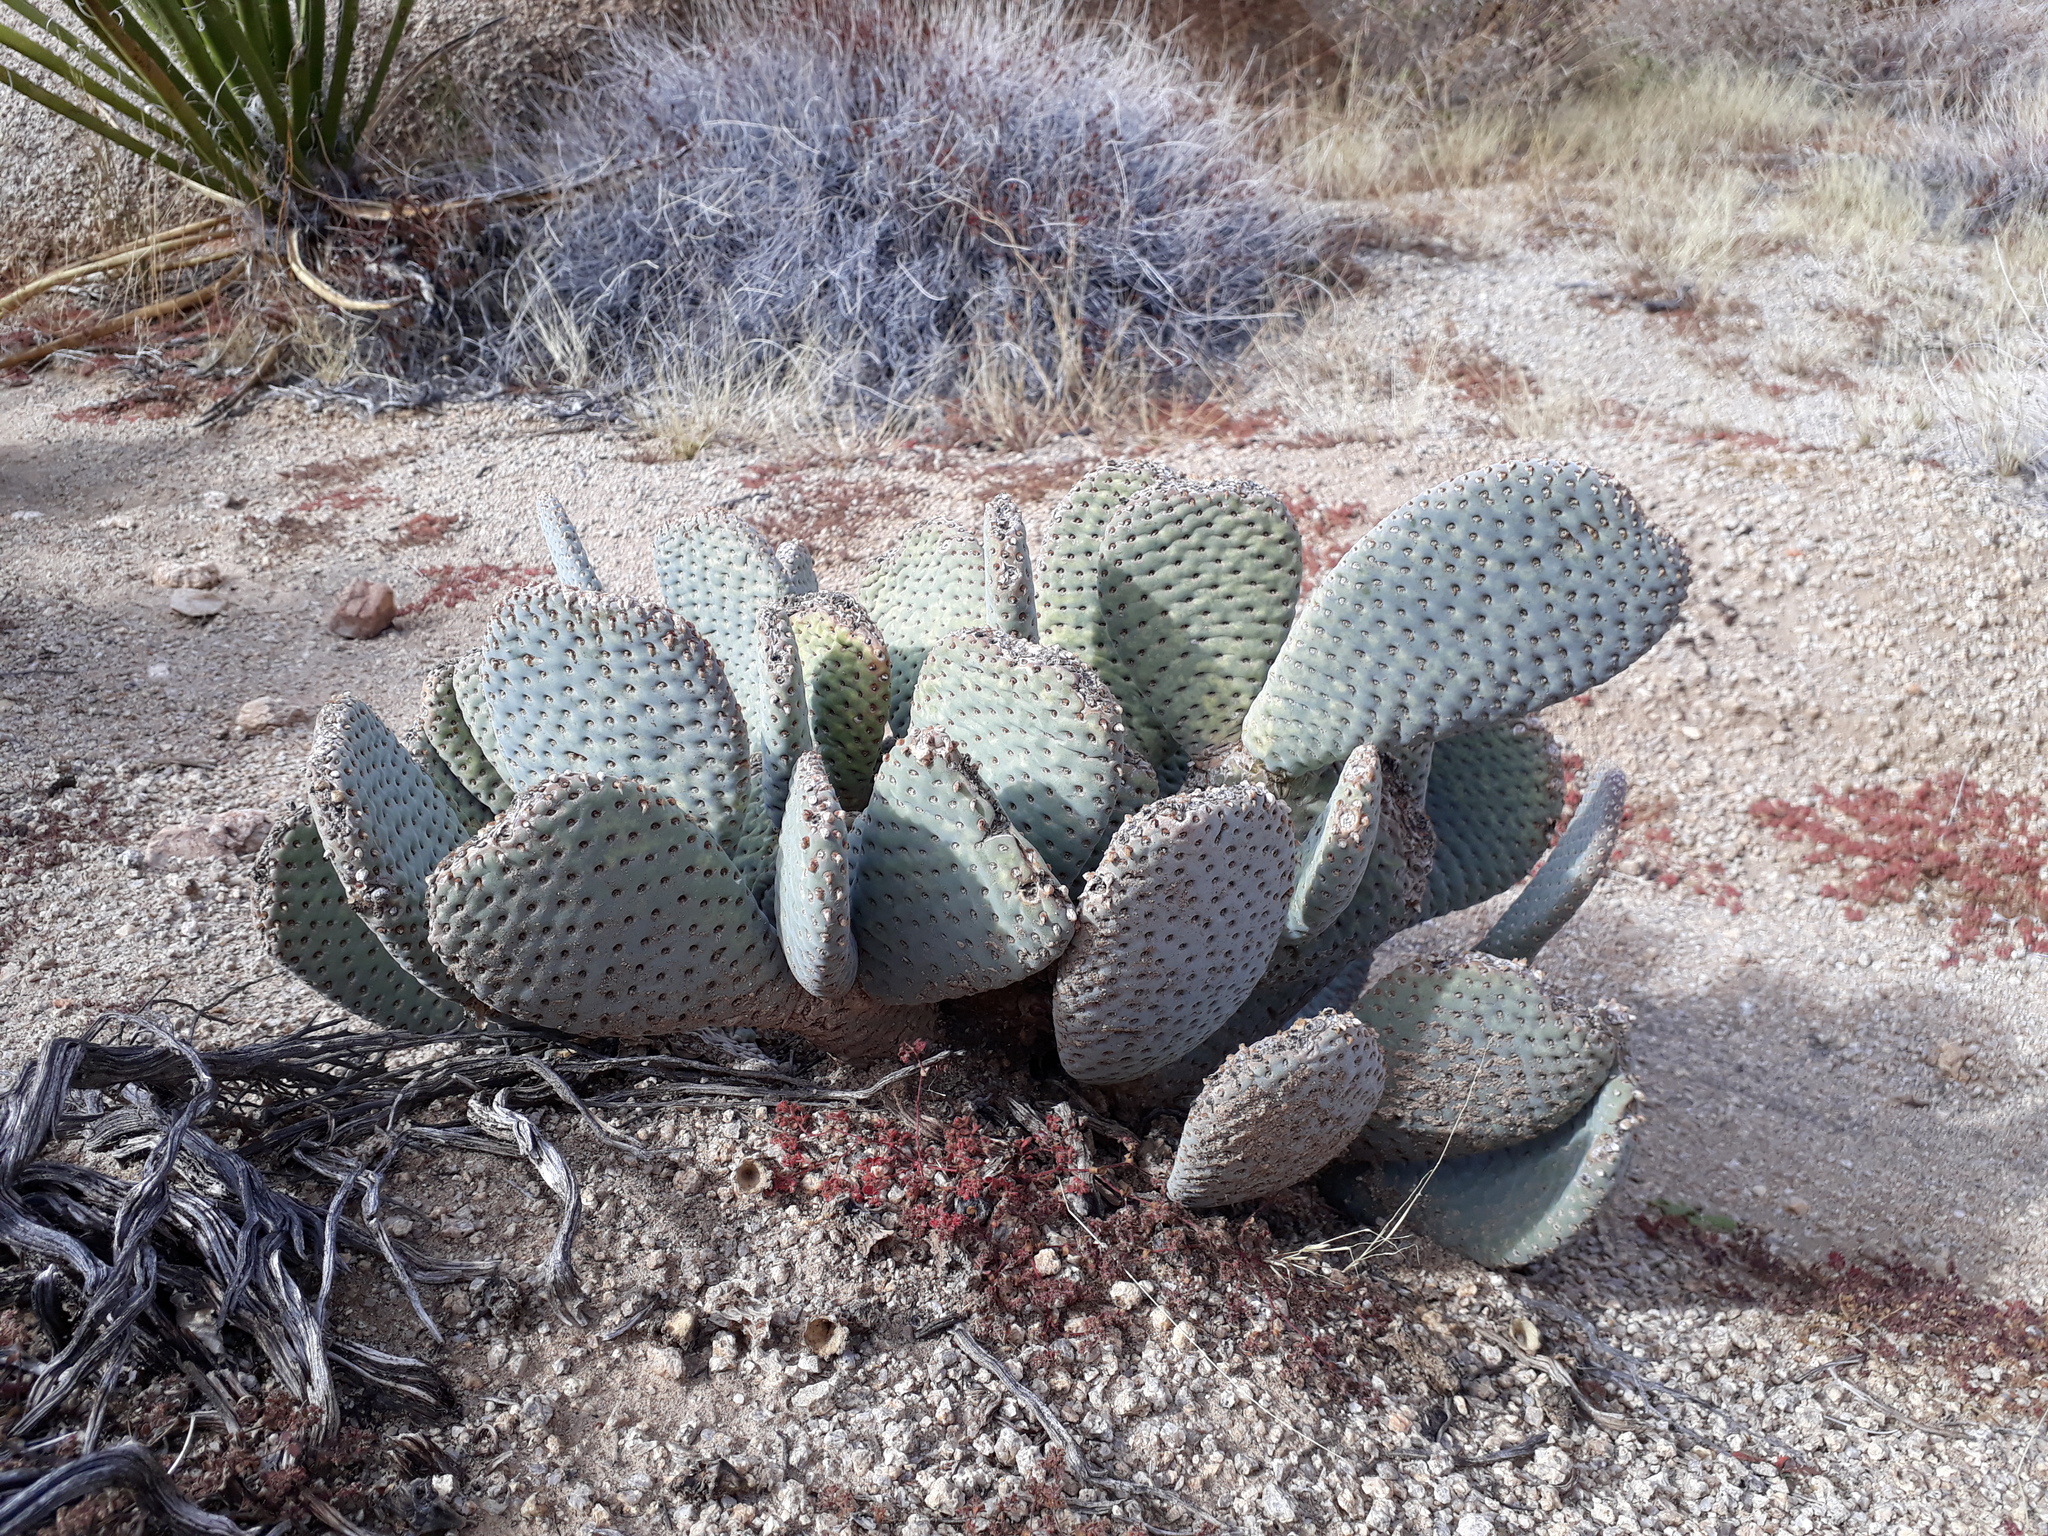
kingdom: Plantae
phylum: Tracheophyta
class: Magnoliopsida
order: Caryophyllales
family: Cactaceae
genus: Opuntia
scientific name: Opuntia basilaris
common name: Beavertail prickly-pear
